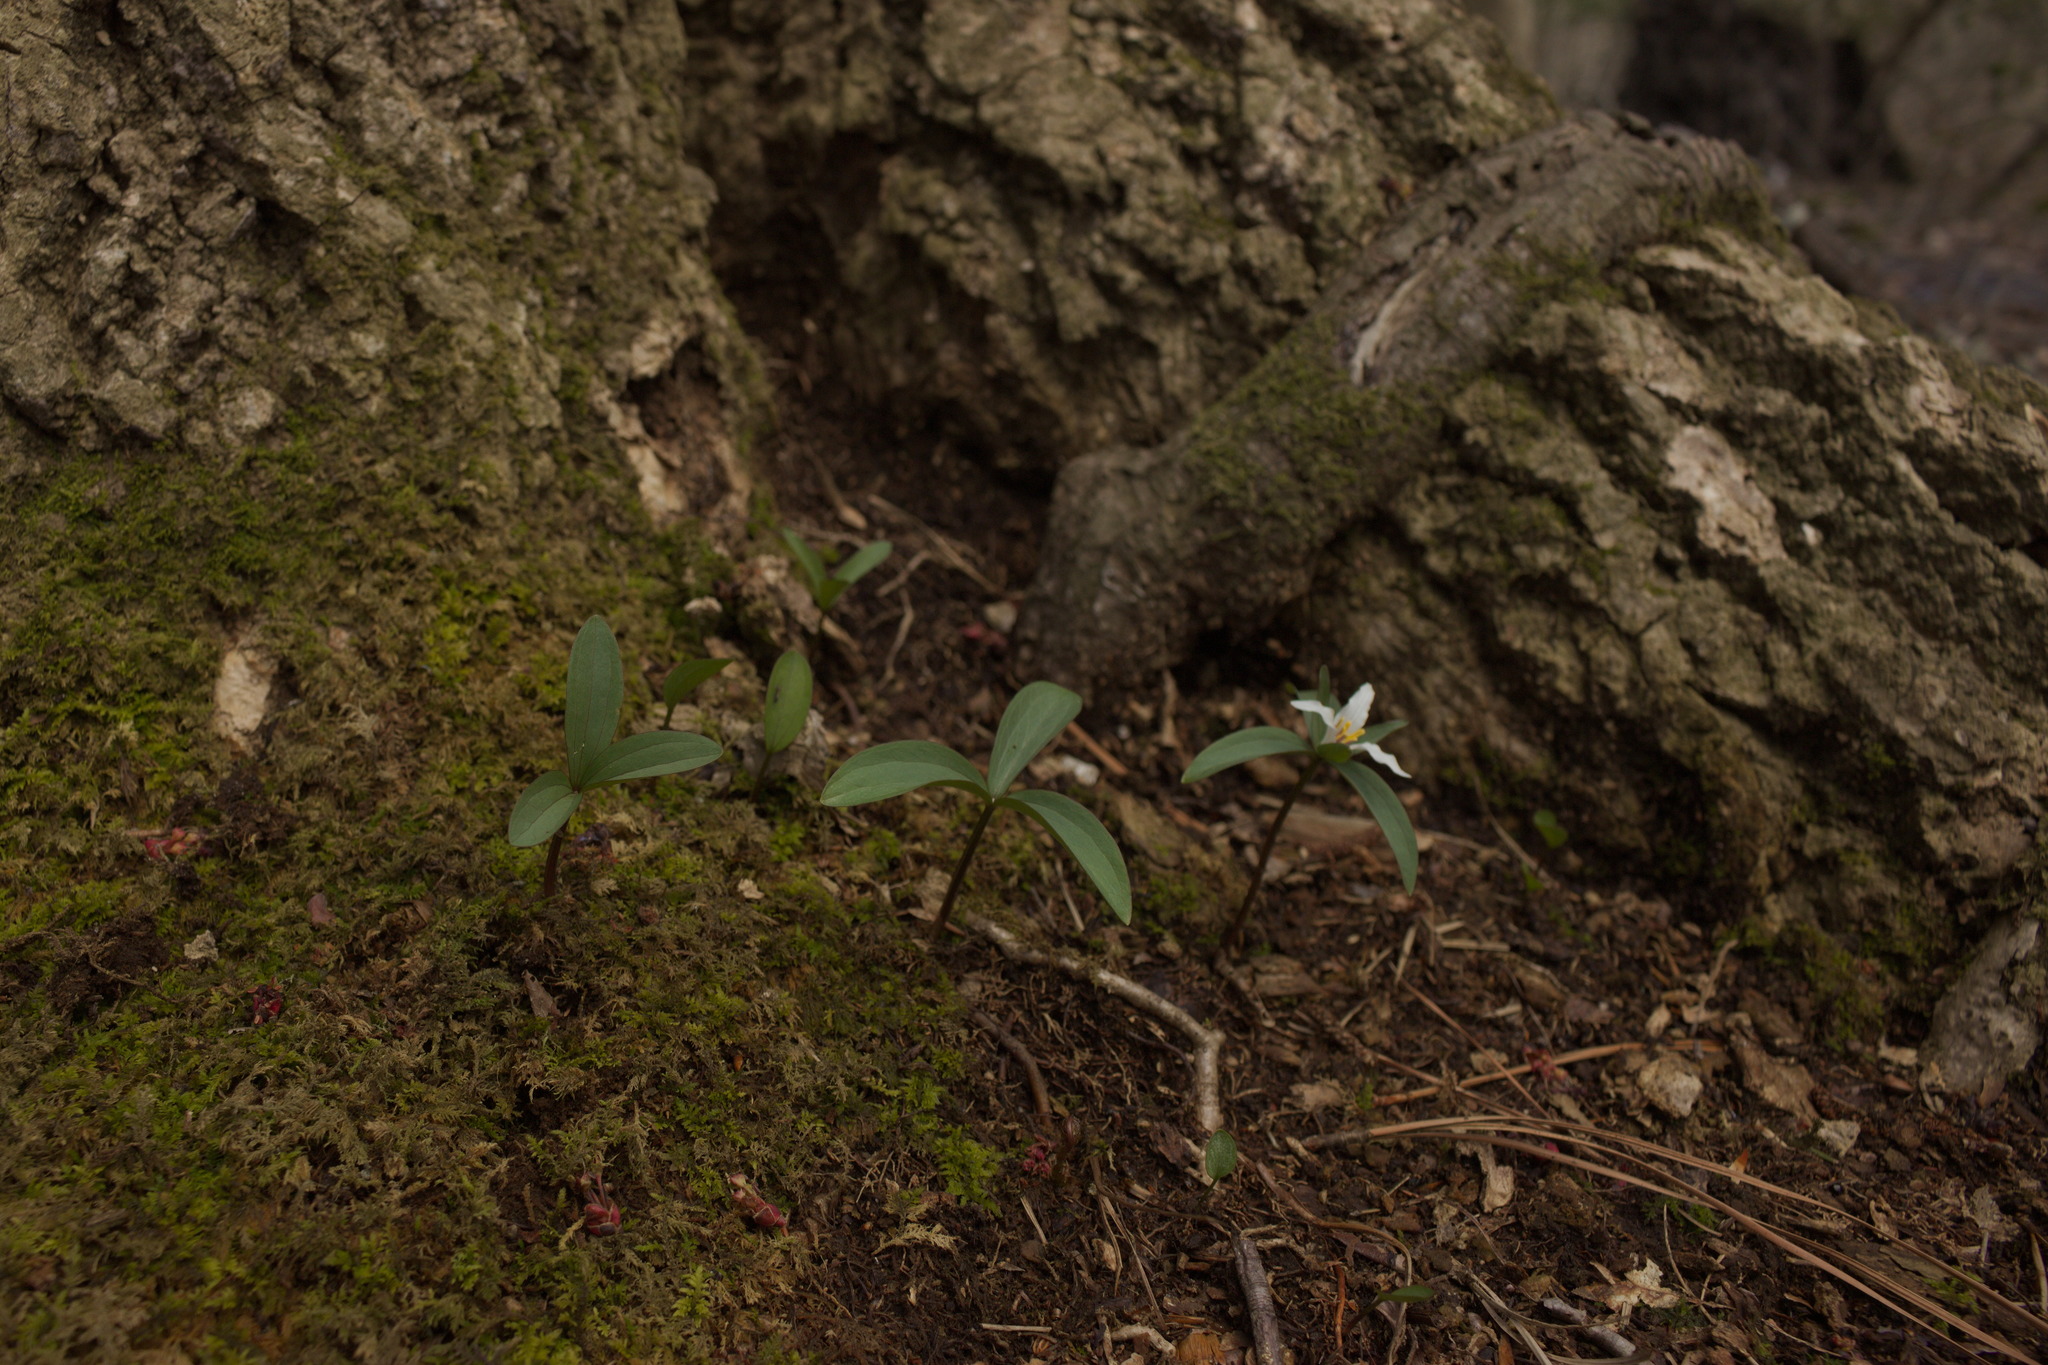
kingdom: Plantae
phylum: Tracheophyta
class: Liliopsida
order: Liliales
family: Melanthiaceae
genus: Trillium
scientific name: Trillium pusillum
